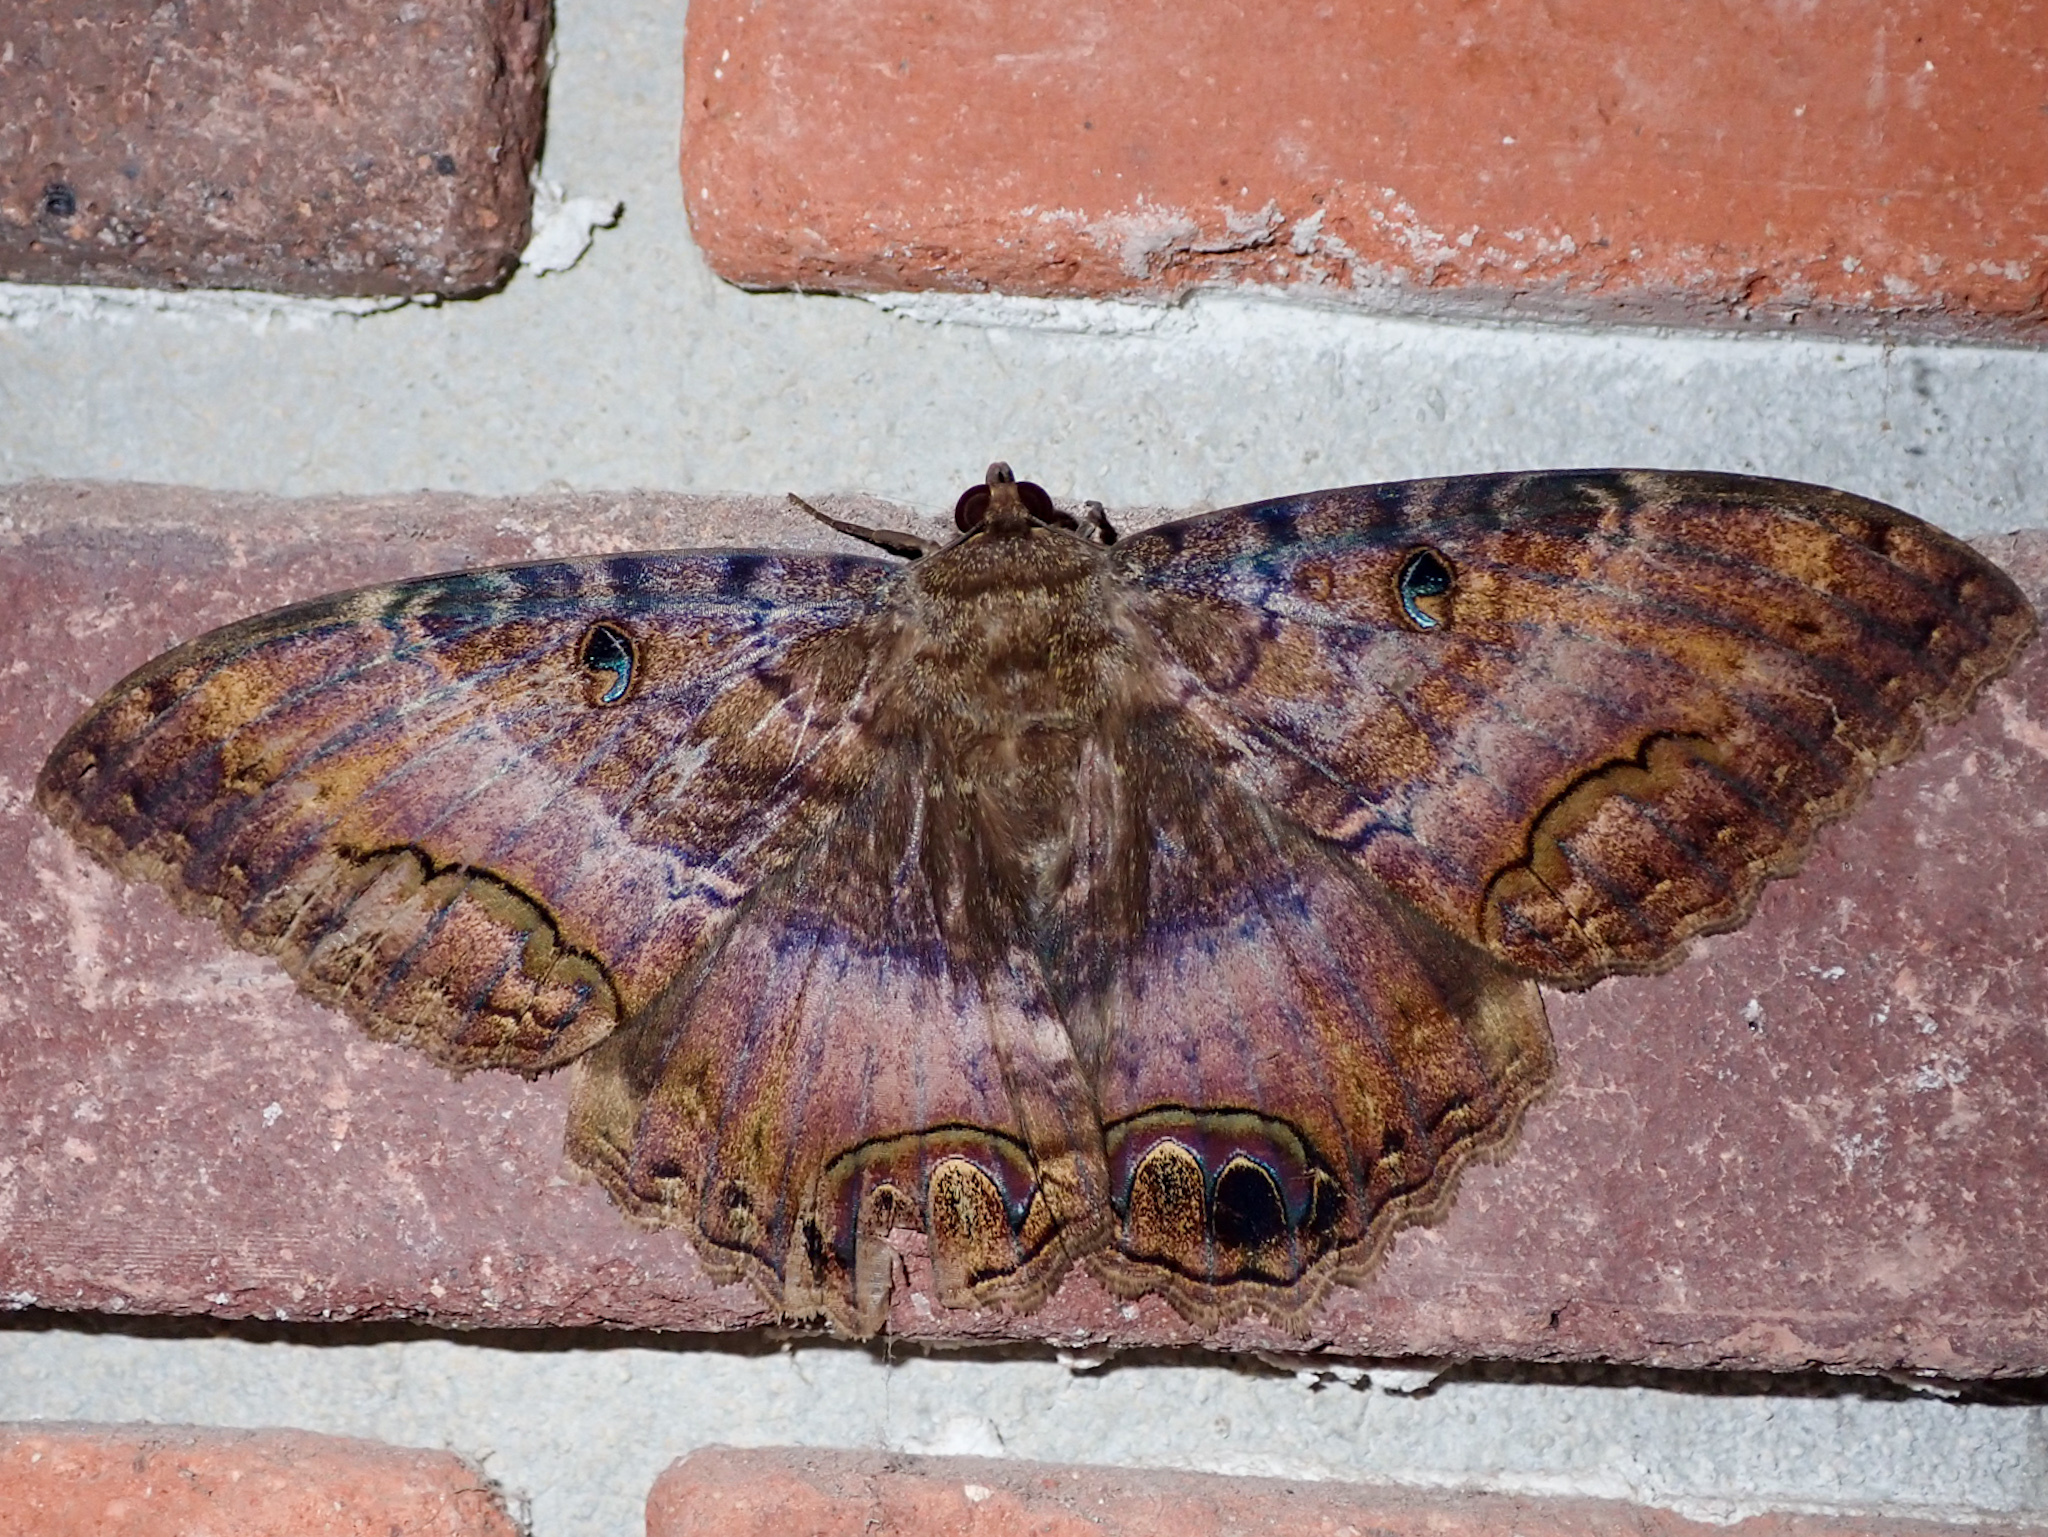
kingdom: Animalia
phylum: Arthropoda
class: Insecta
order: Lepidoptera
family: Erebidae
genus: Ascalapha
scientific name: Ascalapha odorata
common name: Black witch
